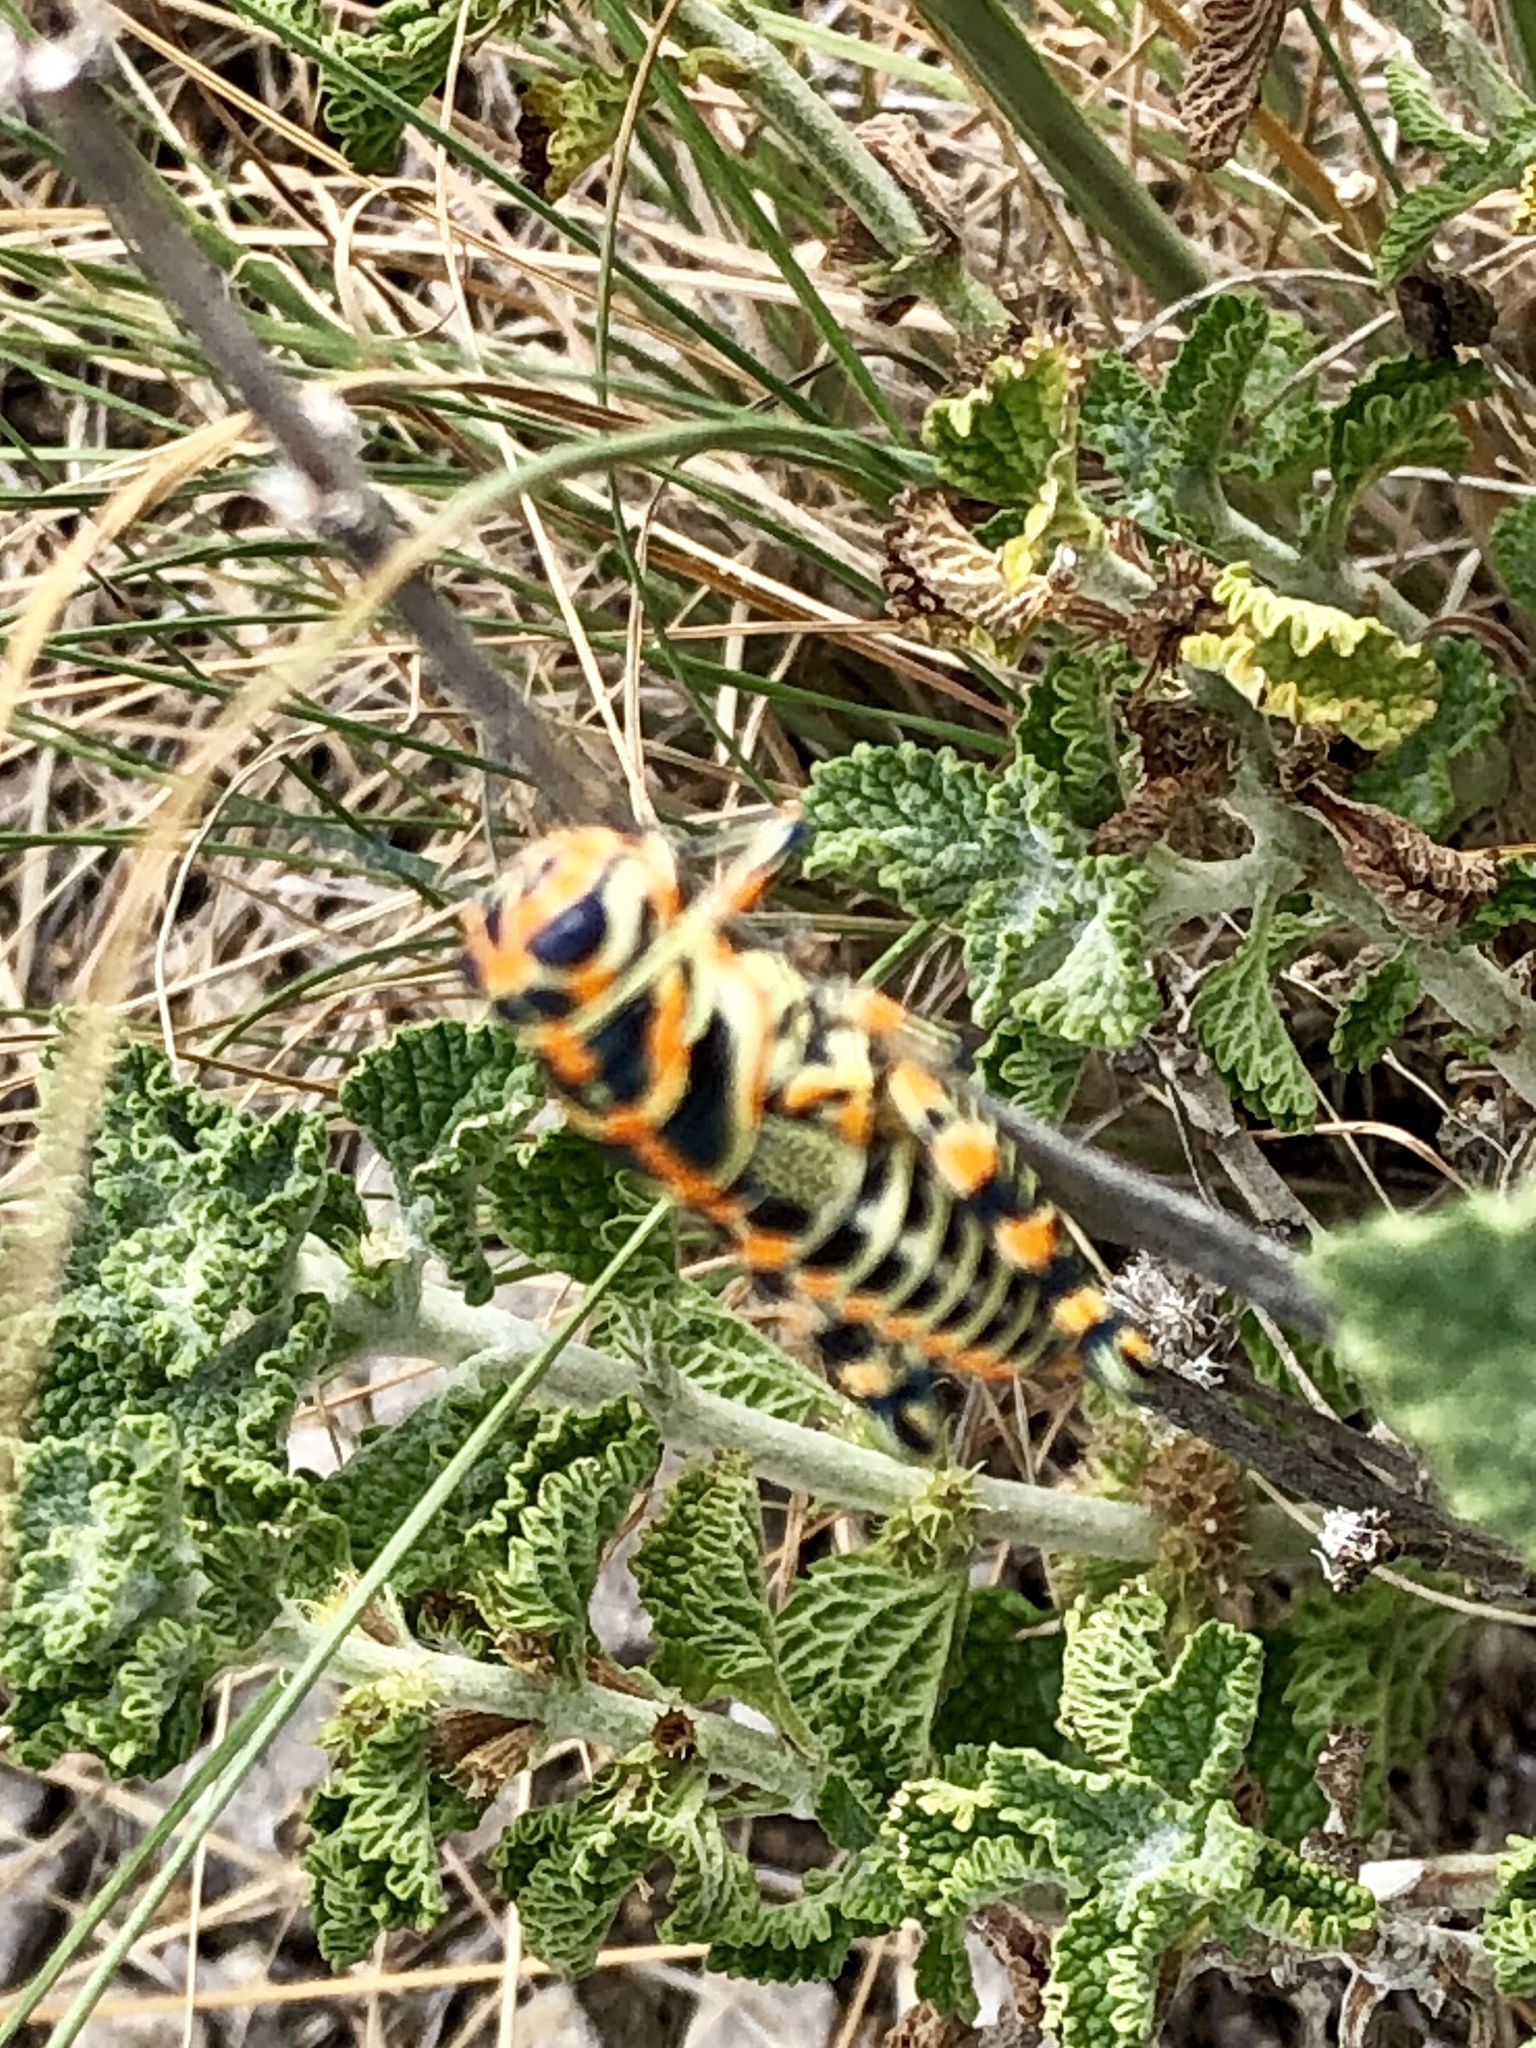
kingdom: Animalia
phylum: Arthropoda
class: Insecta
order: Orthoptera
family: Acrididae
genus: Dactylotum
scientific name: Dactylotum bicolor
